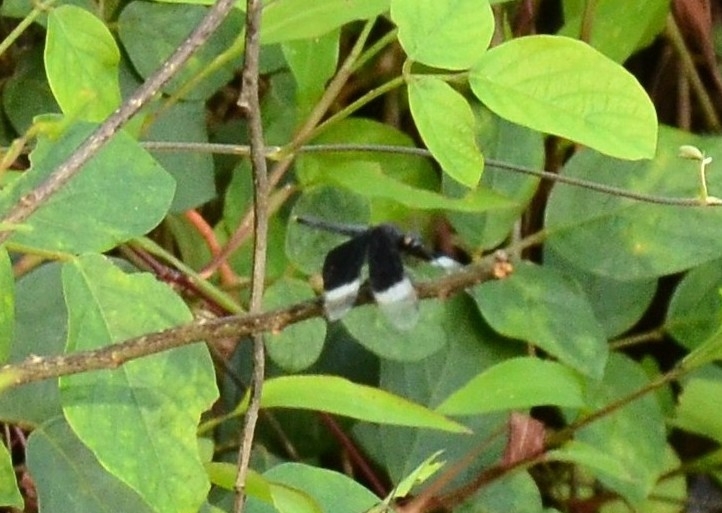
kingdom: Animalia
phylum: Arthropoda
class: Insecta
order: Odonata
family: Libellulidae
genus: Neurothemis
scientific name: Neurothemis tullia
